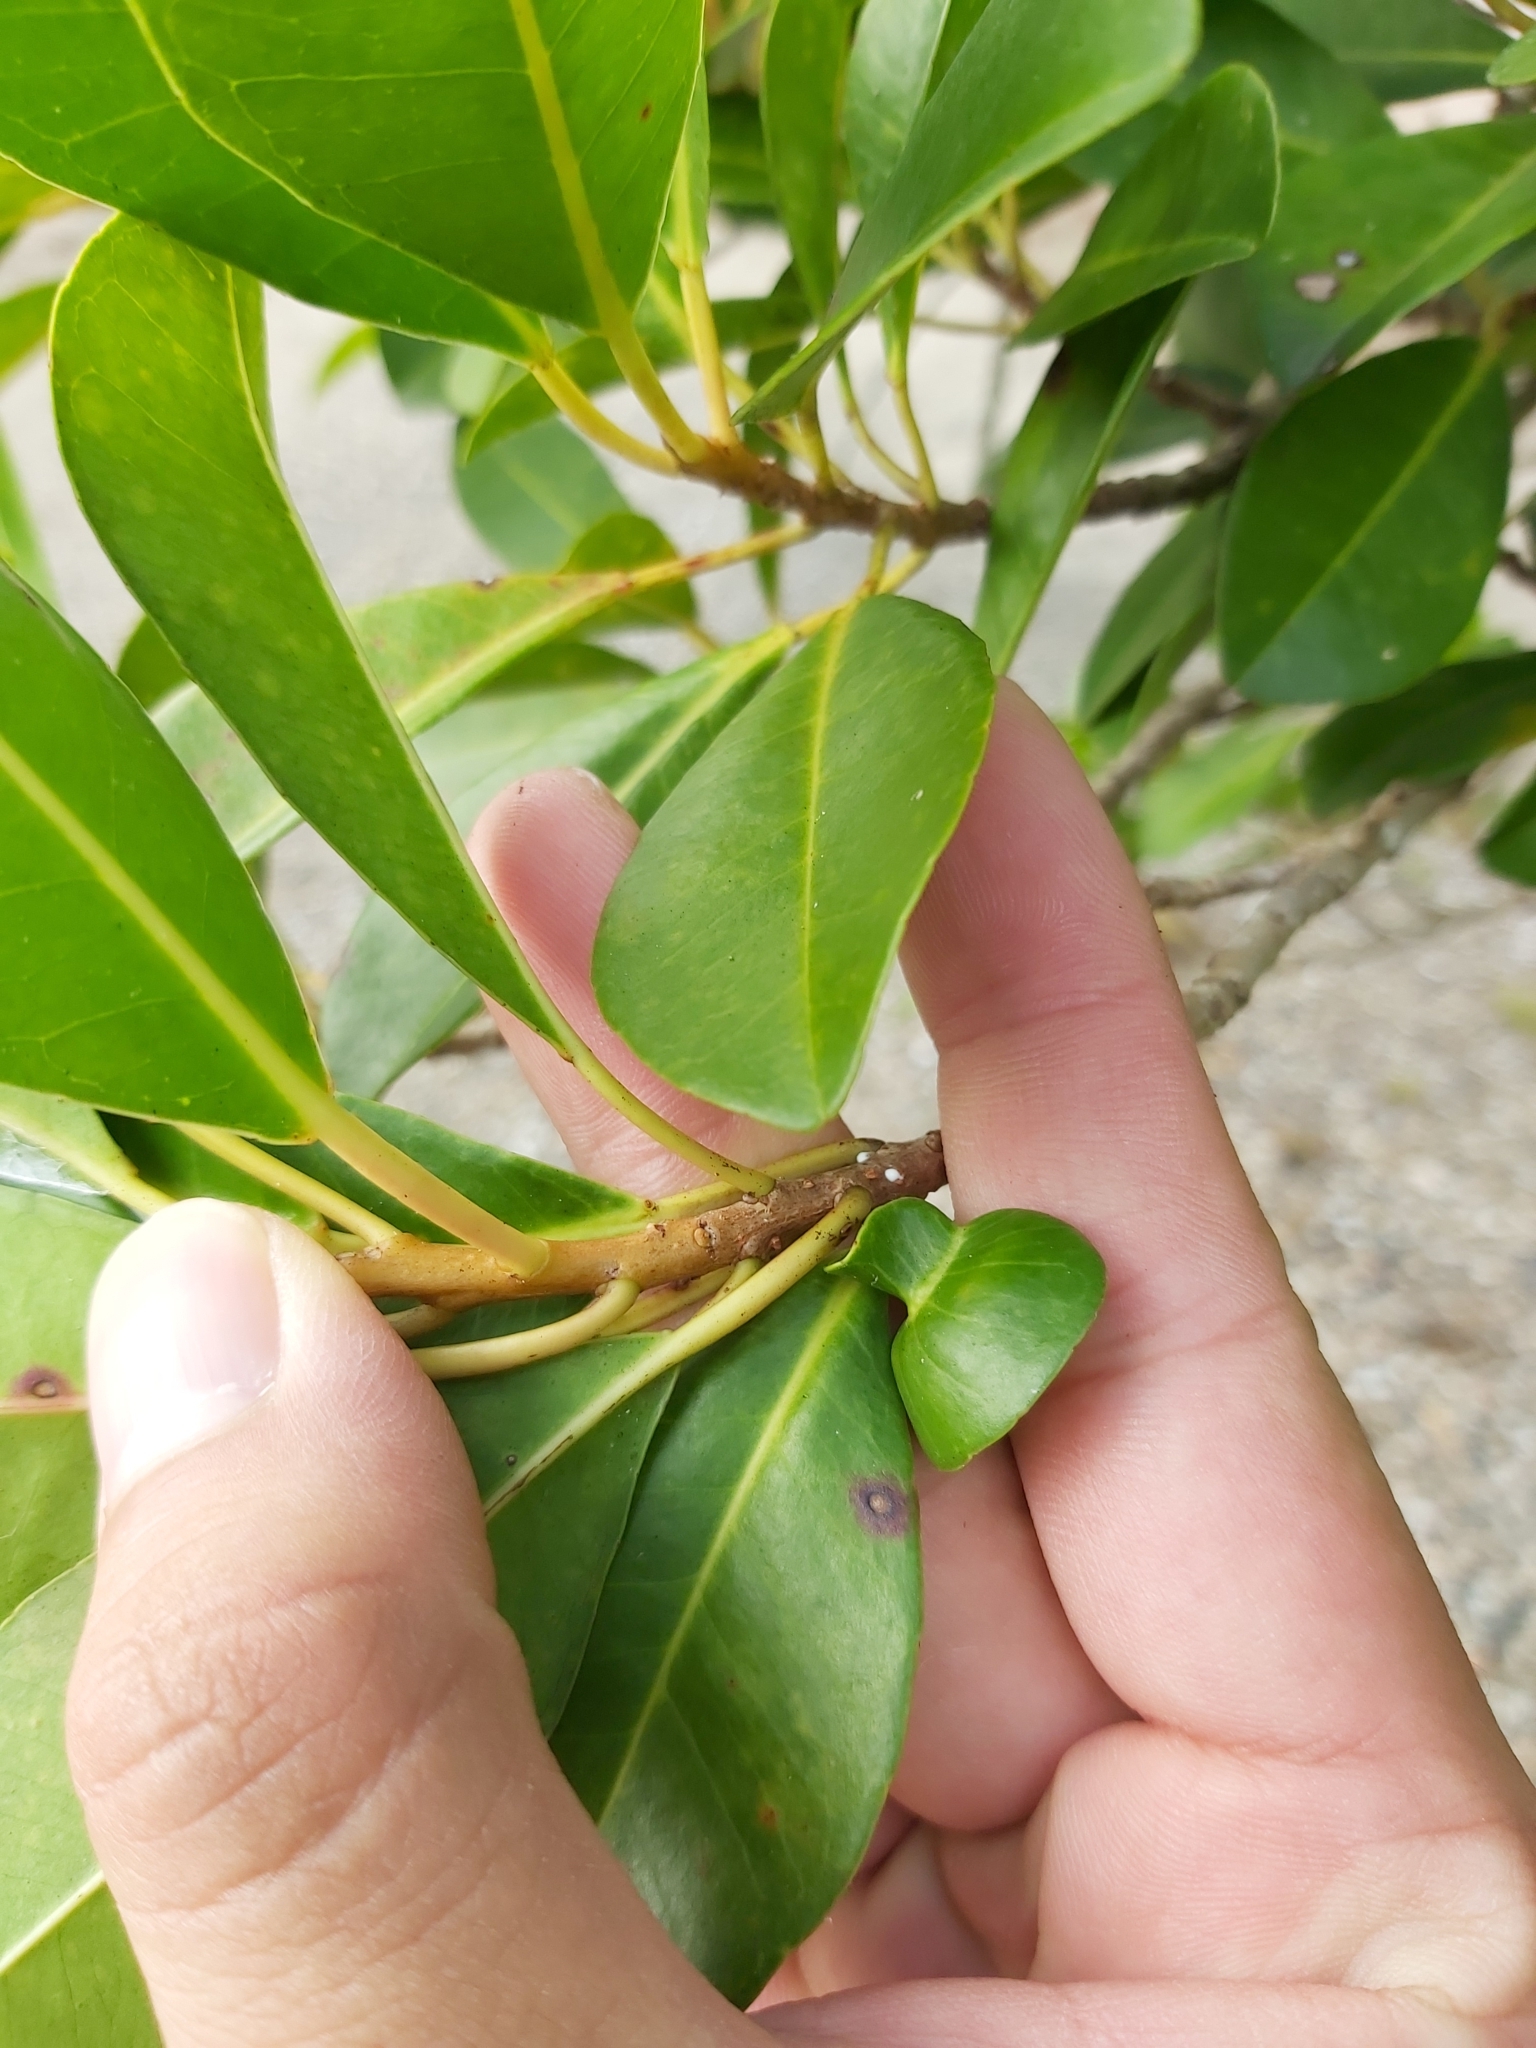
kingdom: Plantae
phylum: Tracheophyta
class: Magnoliopsida
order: Malpighiales
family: Euphorbiaceae
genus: Excoecaria
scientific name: Excoecaria agallocha
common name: River poisontree
